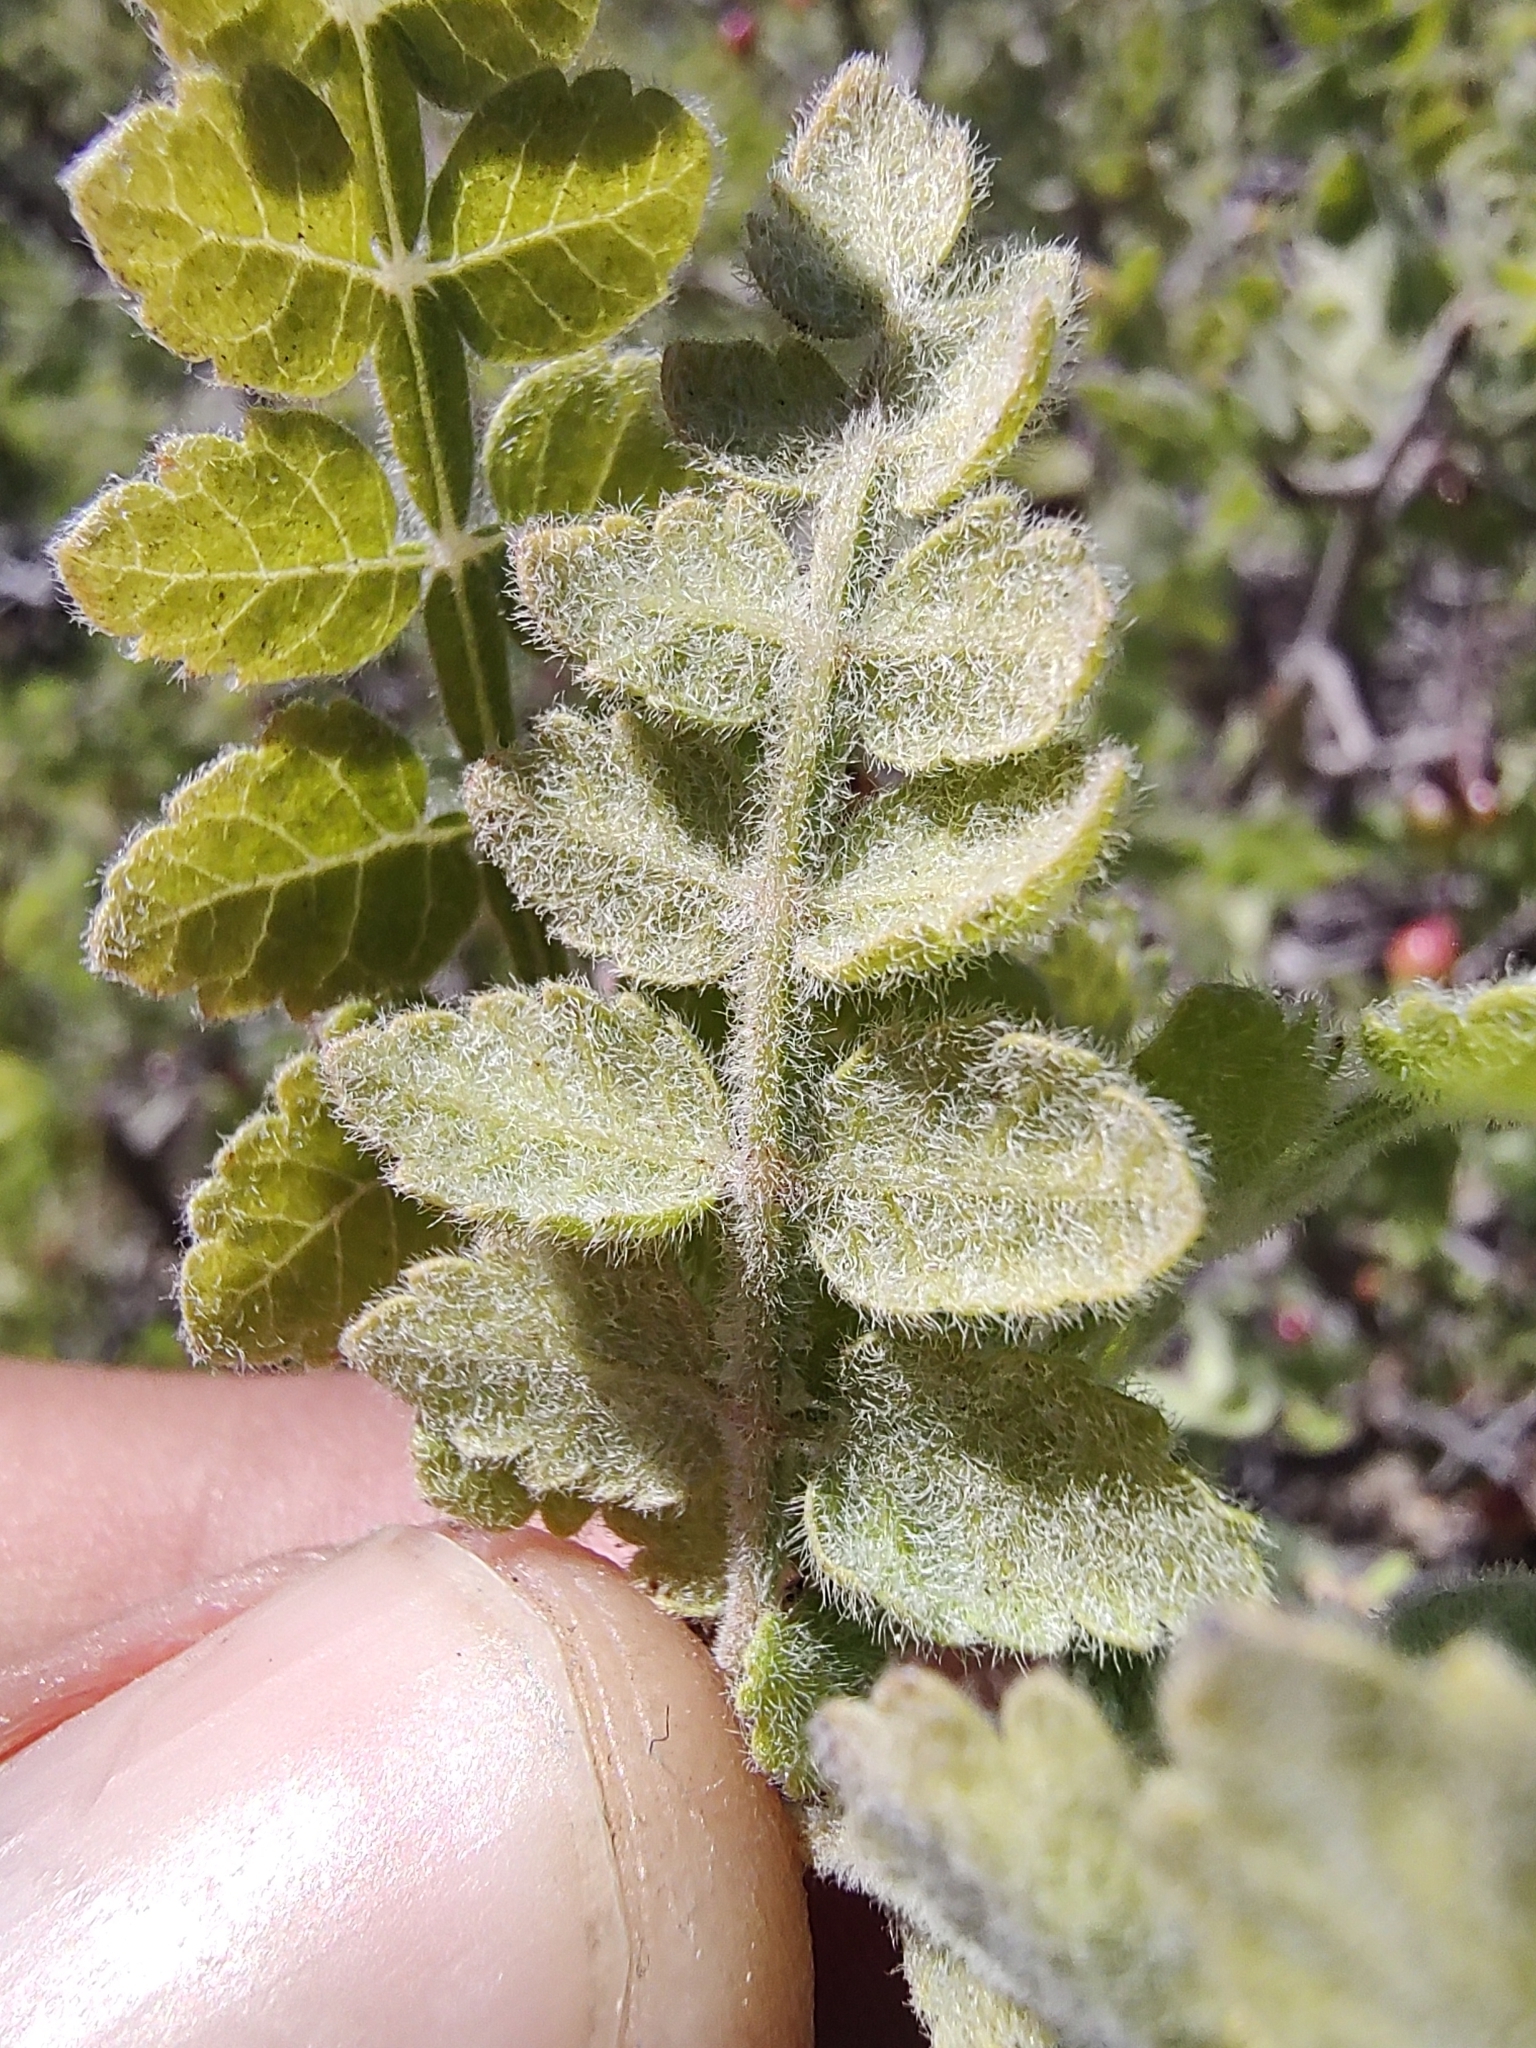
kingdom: Plantae
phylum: Tracheophyta
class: Magnoliopsida
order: Sapindales
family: Burseraceae
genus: Bursera
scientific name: Bursera filicifolia
